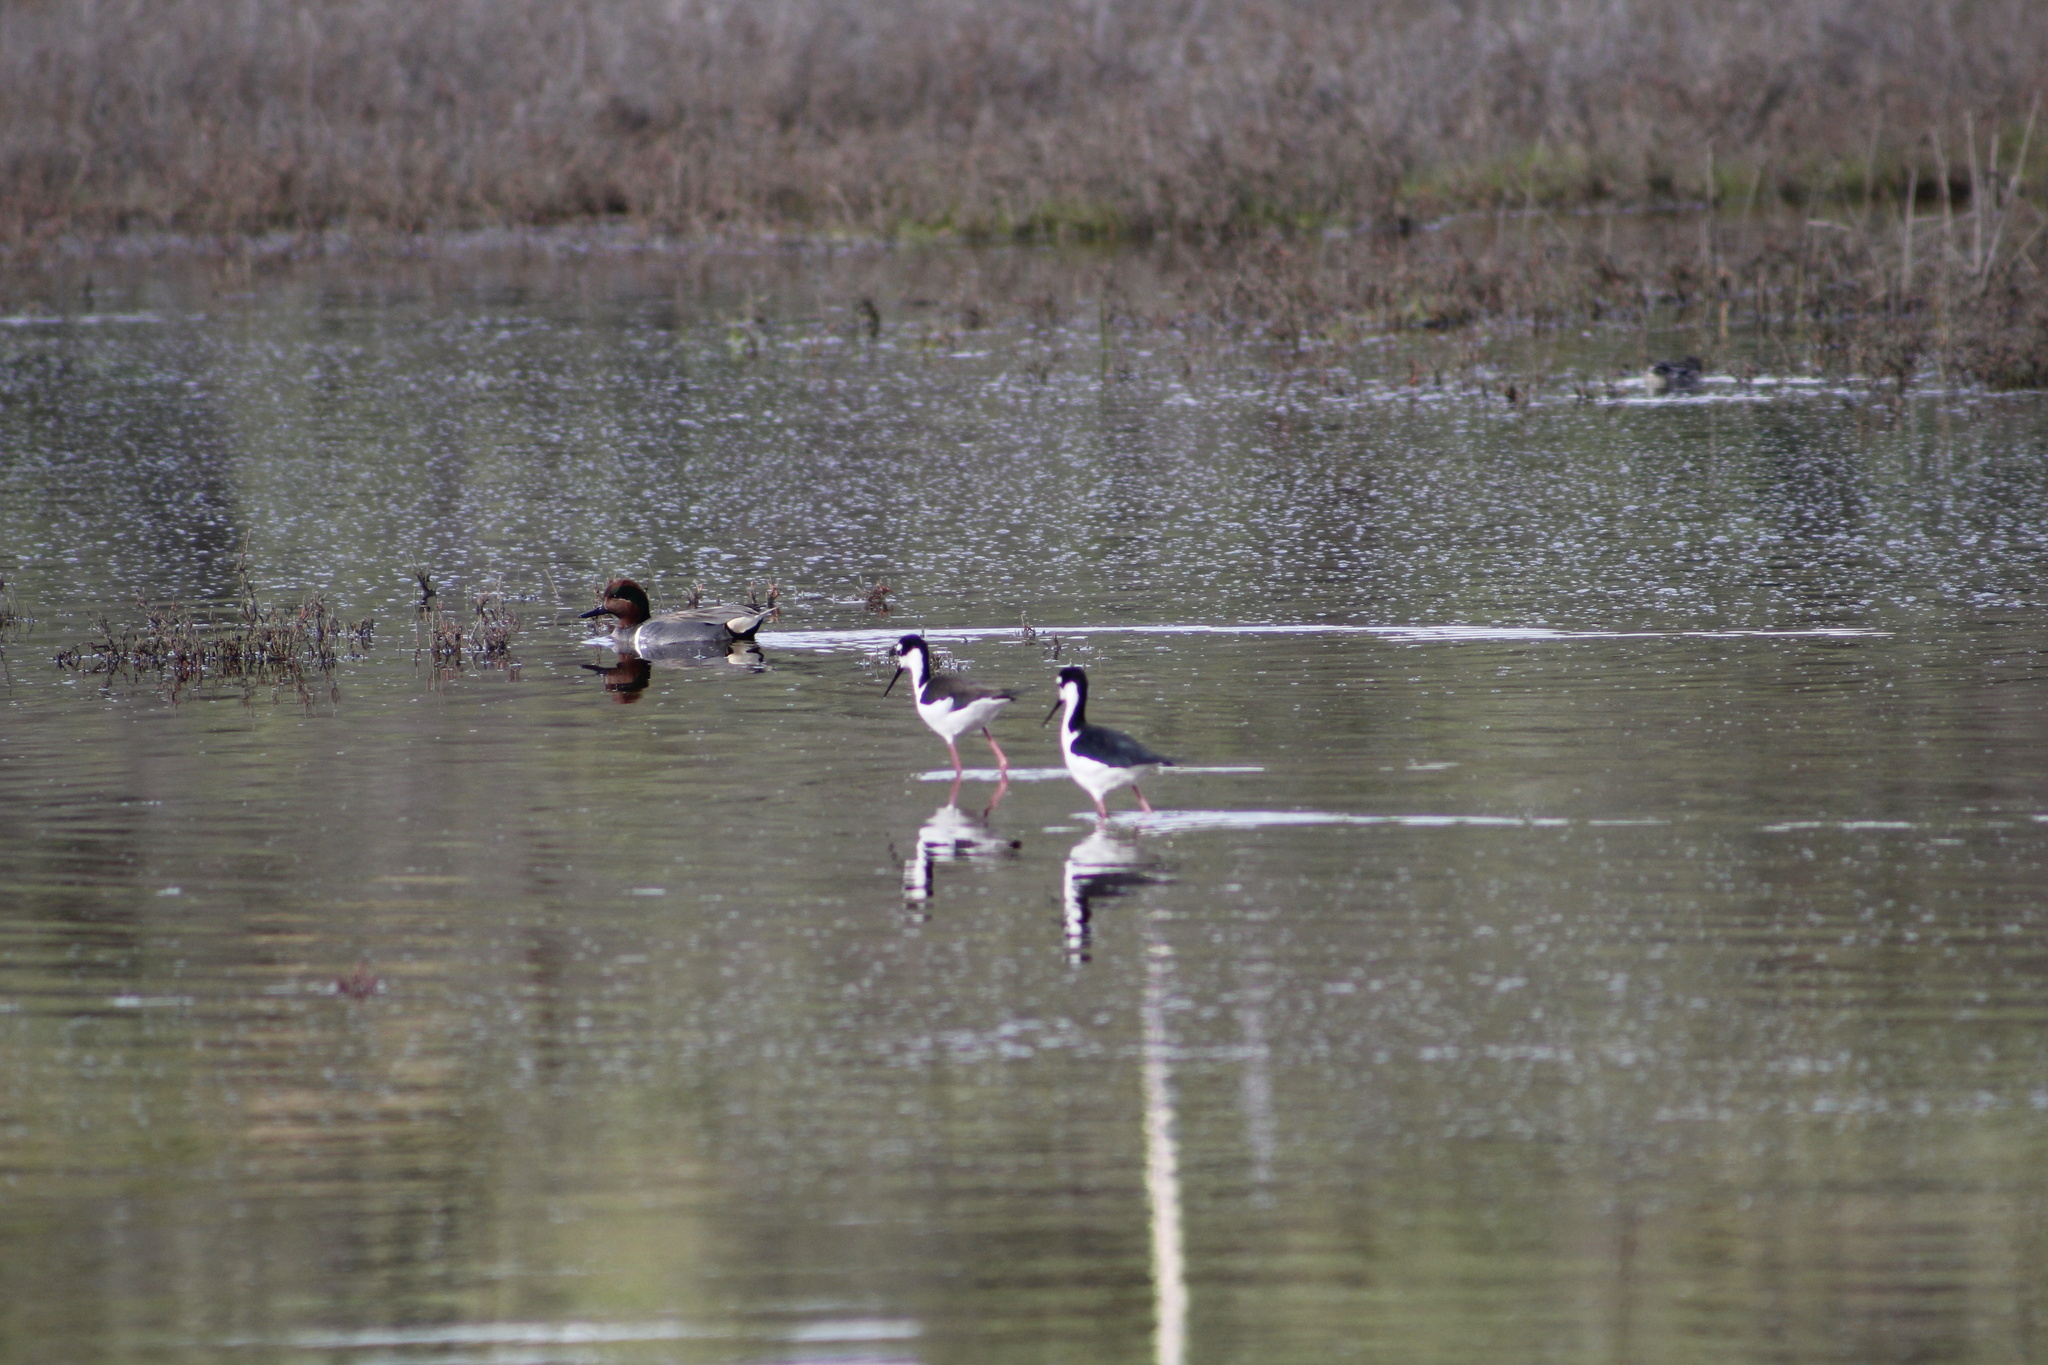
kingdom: Animalia
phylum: Chordata
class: Aves
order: Anseriformes
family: Anatidae
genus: Anas
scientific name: Anas crecca
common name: Eurasian teal
